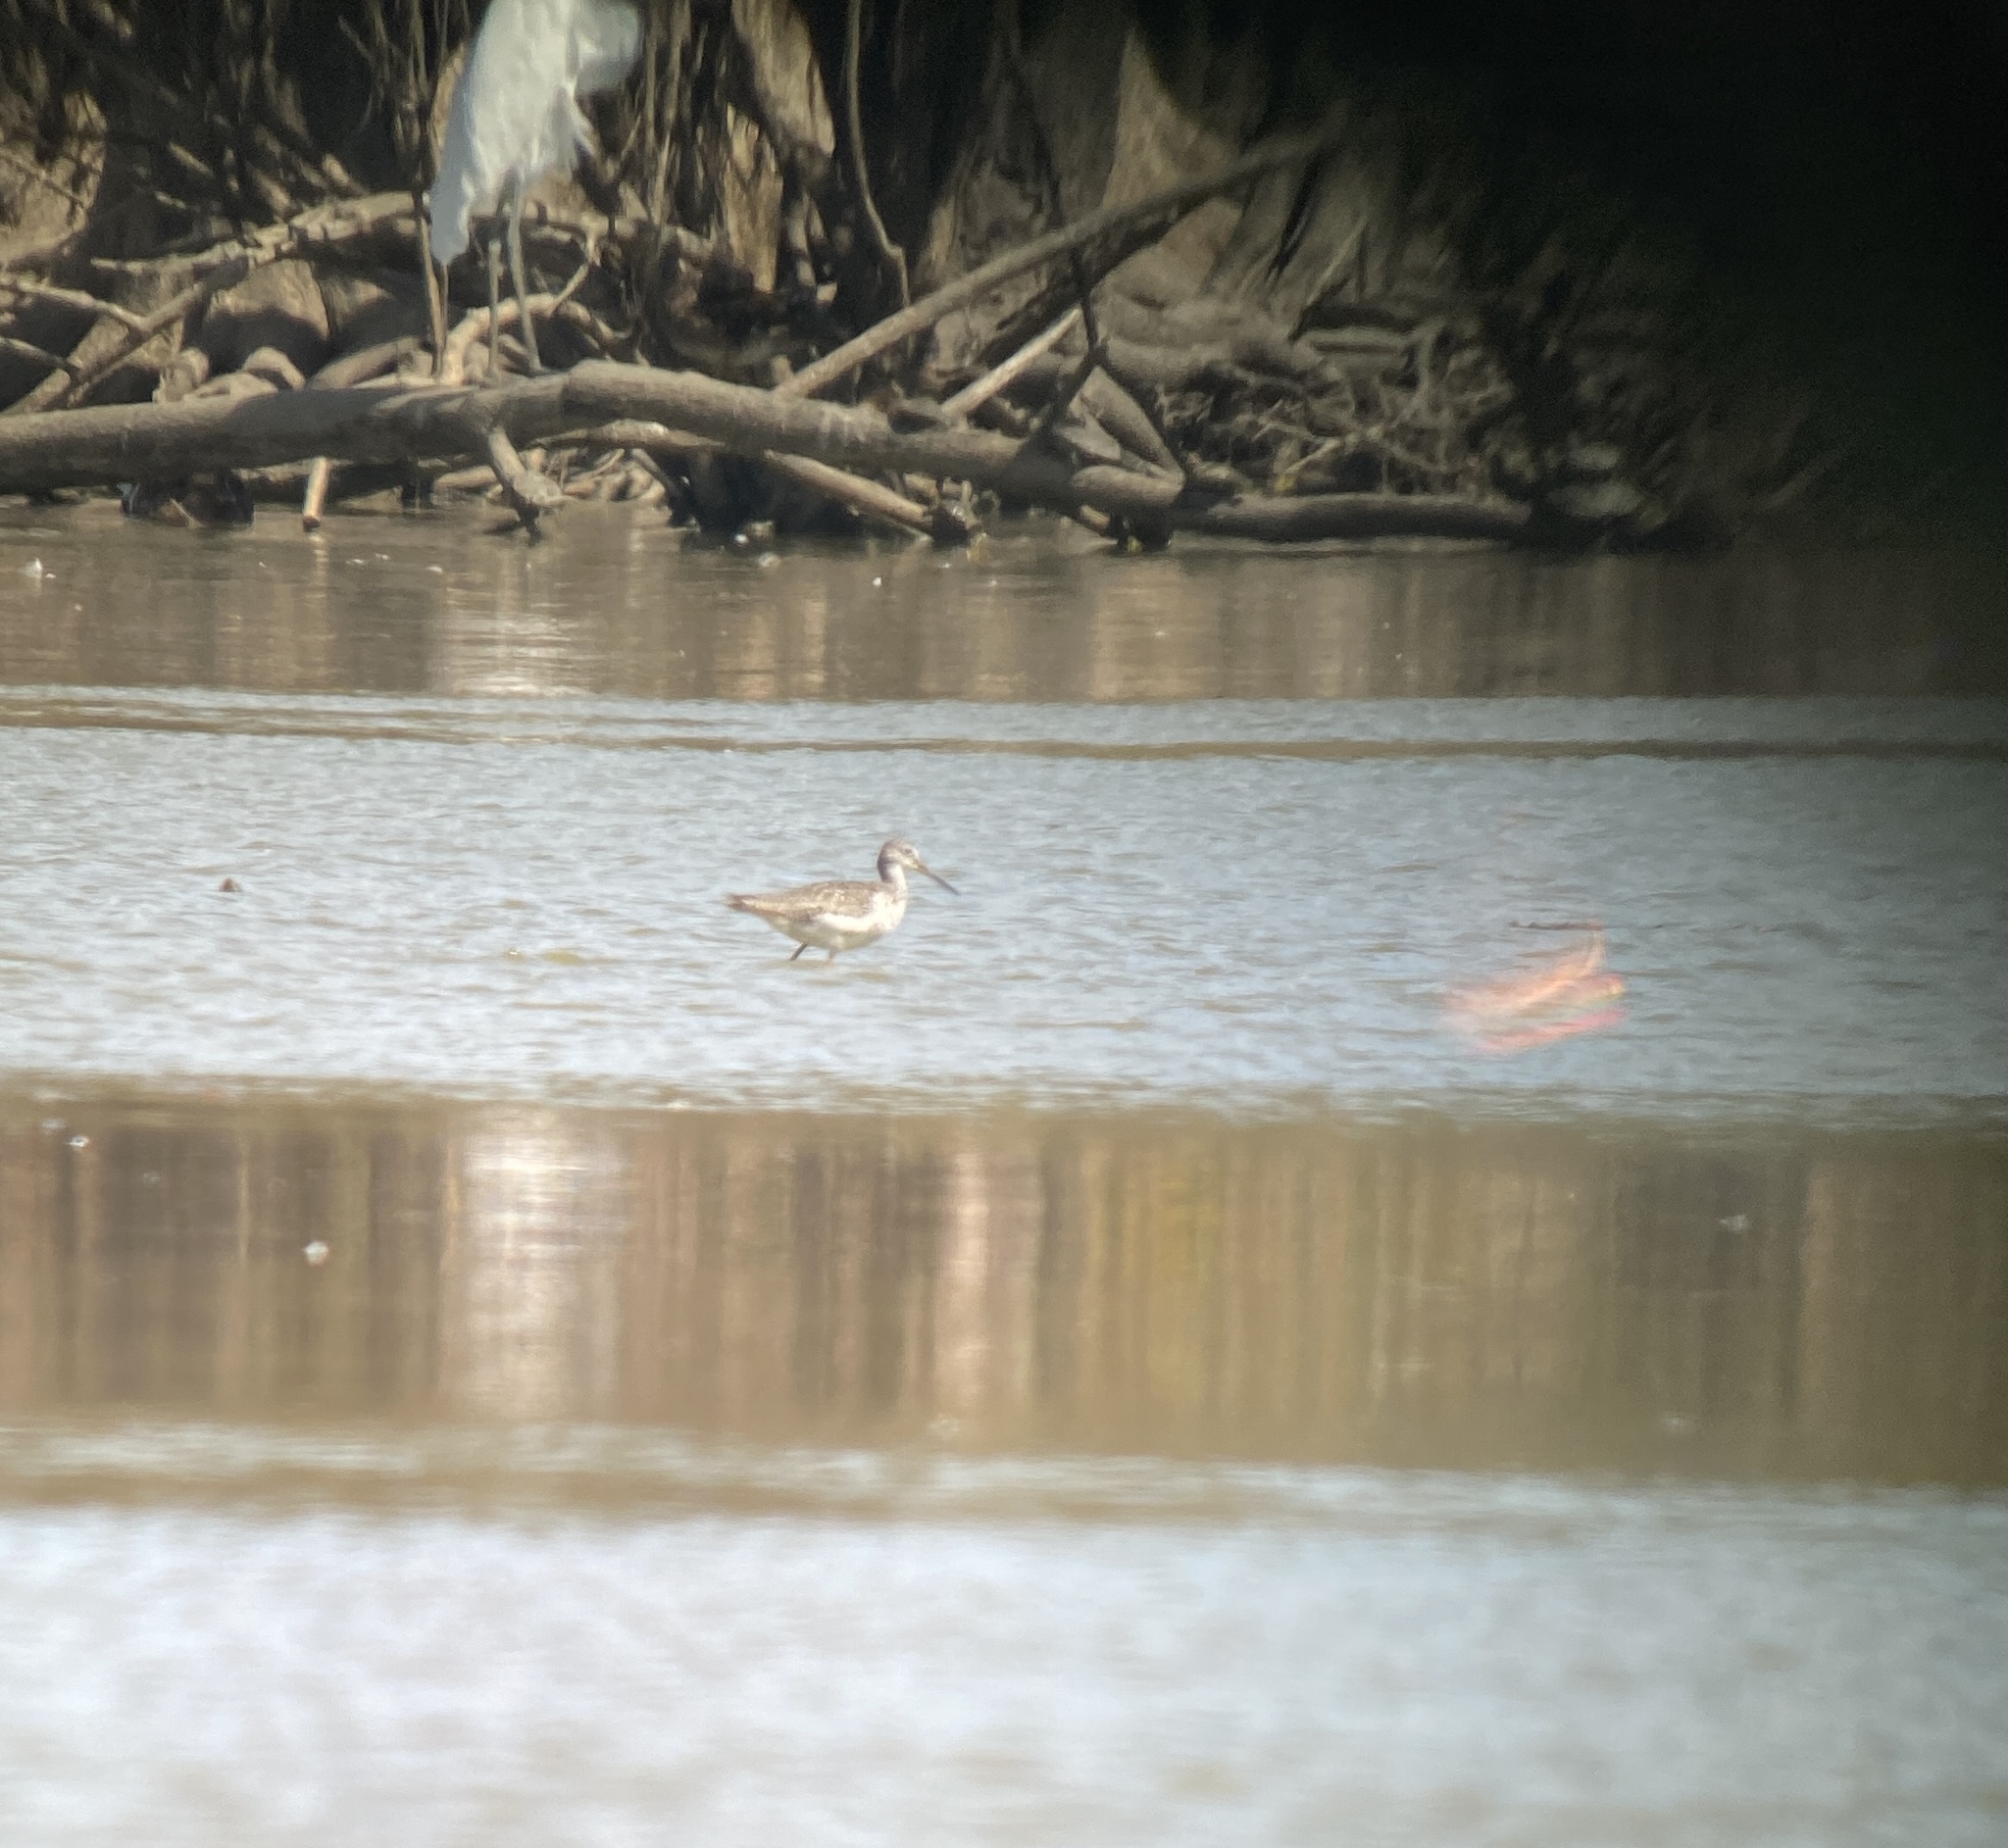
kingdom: Animalia
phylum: Chordata
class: Aves
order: Charadriiformes
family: Scolopacidae
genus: Tringa
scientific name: Tringa melanoleuca
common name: Greater yellowlegs
